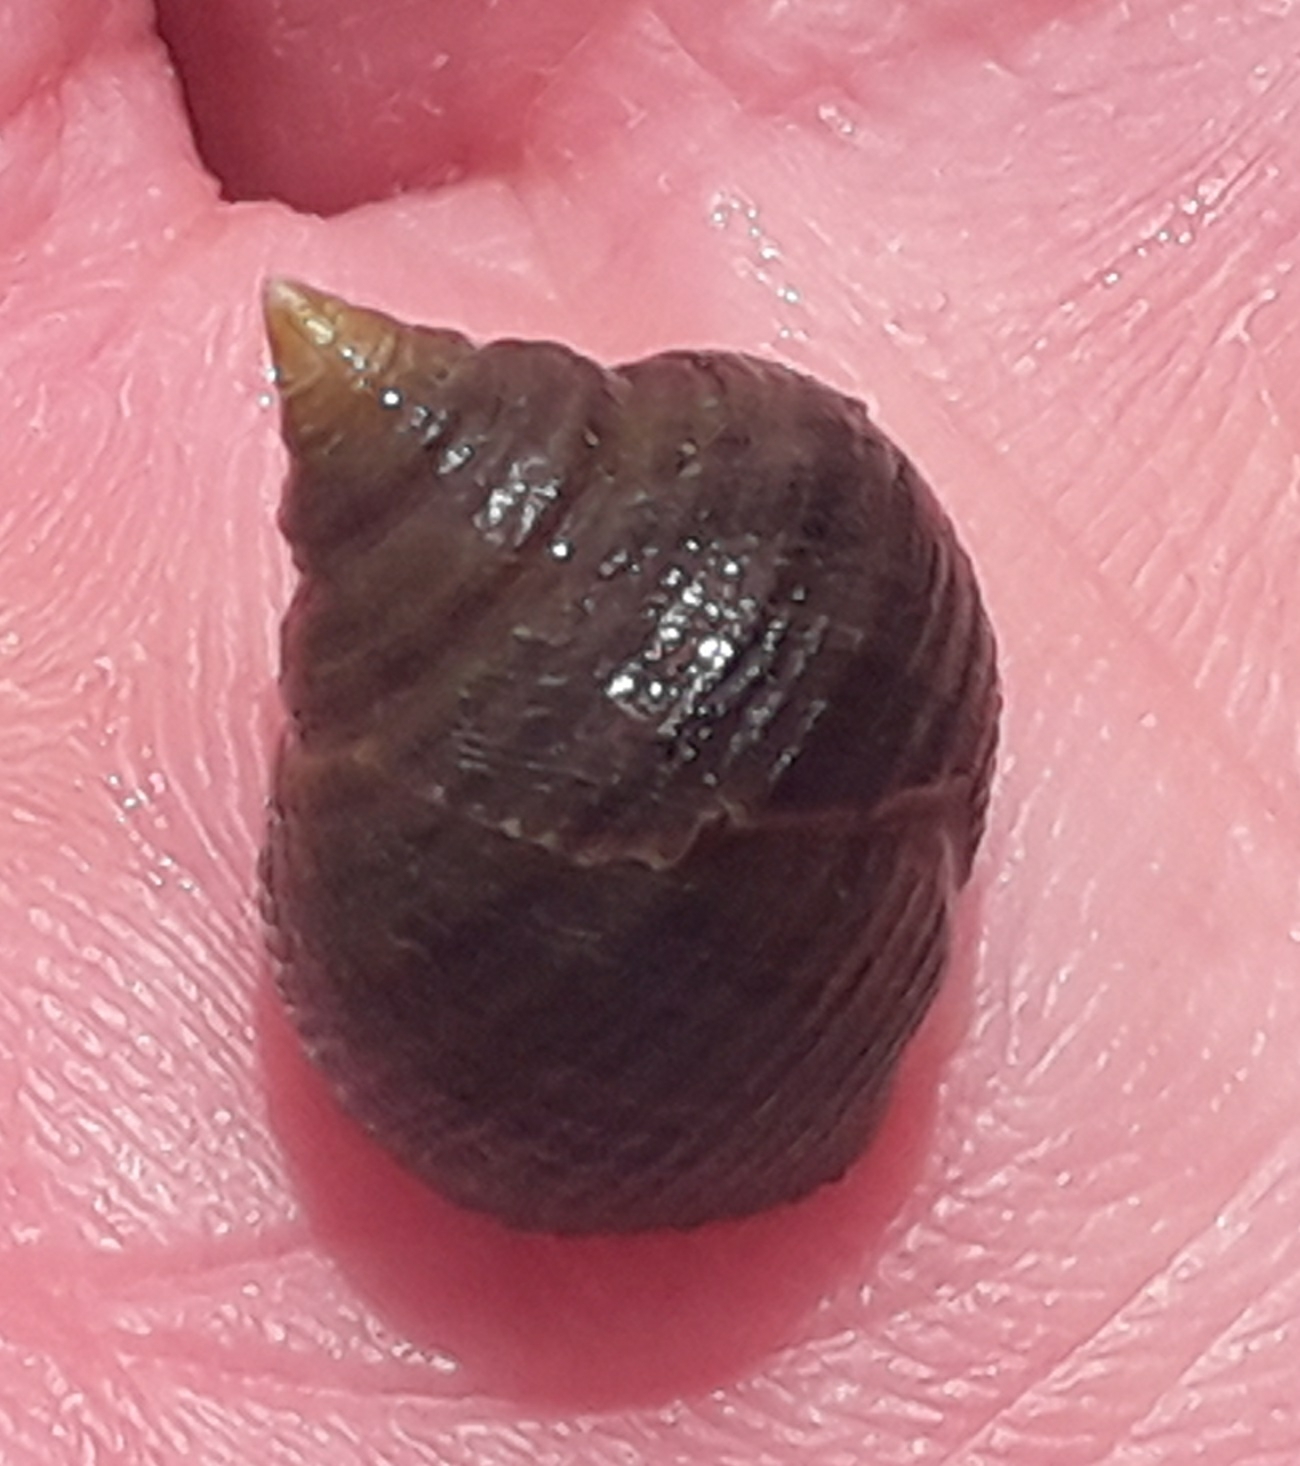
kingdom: Animalia
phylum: Mollusca
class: Gastropoda
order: Littorinimorpha
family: Littorinidae
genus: Littorina
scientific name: Littorina littorea
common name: Common periwinkle
